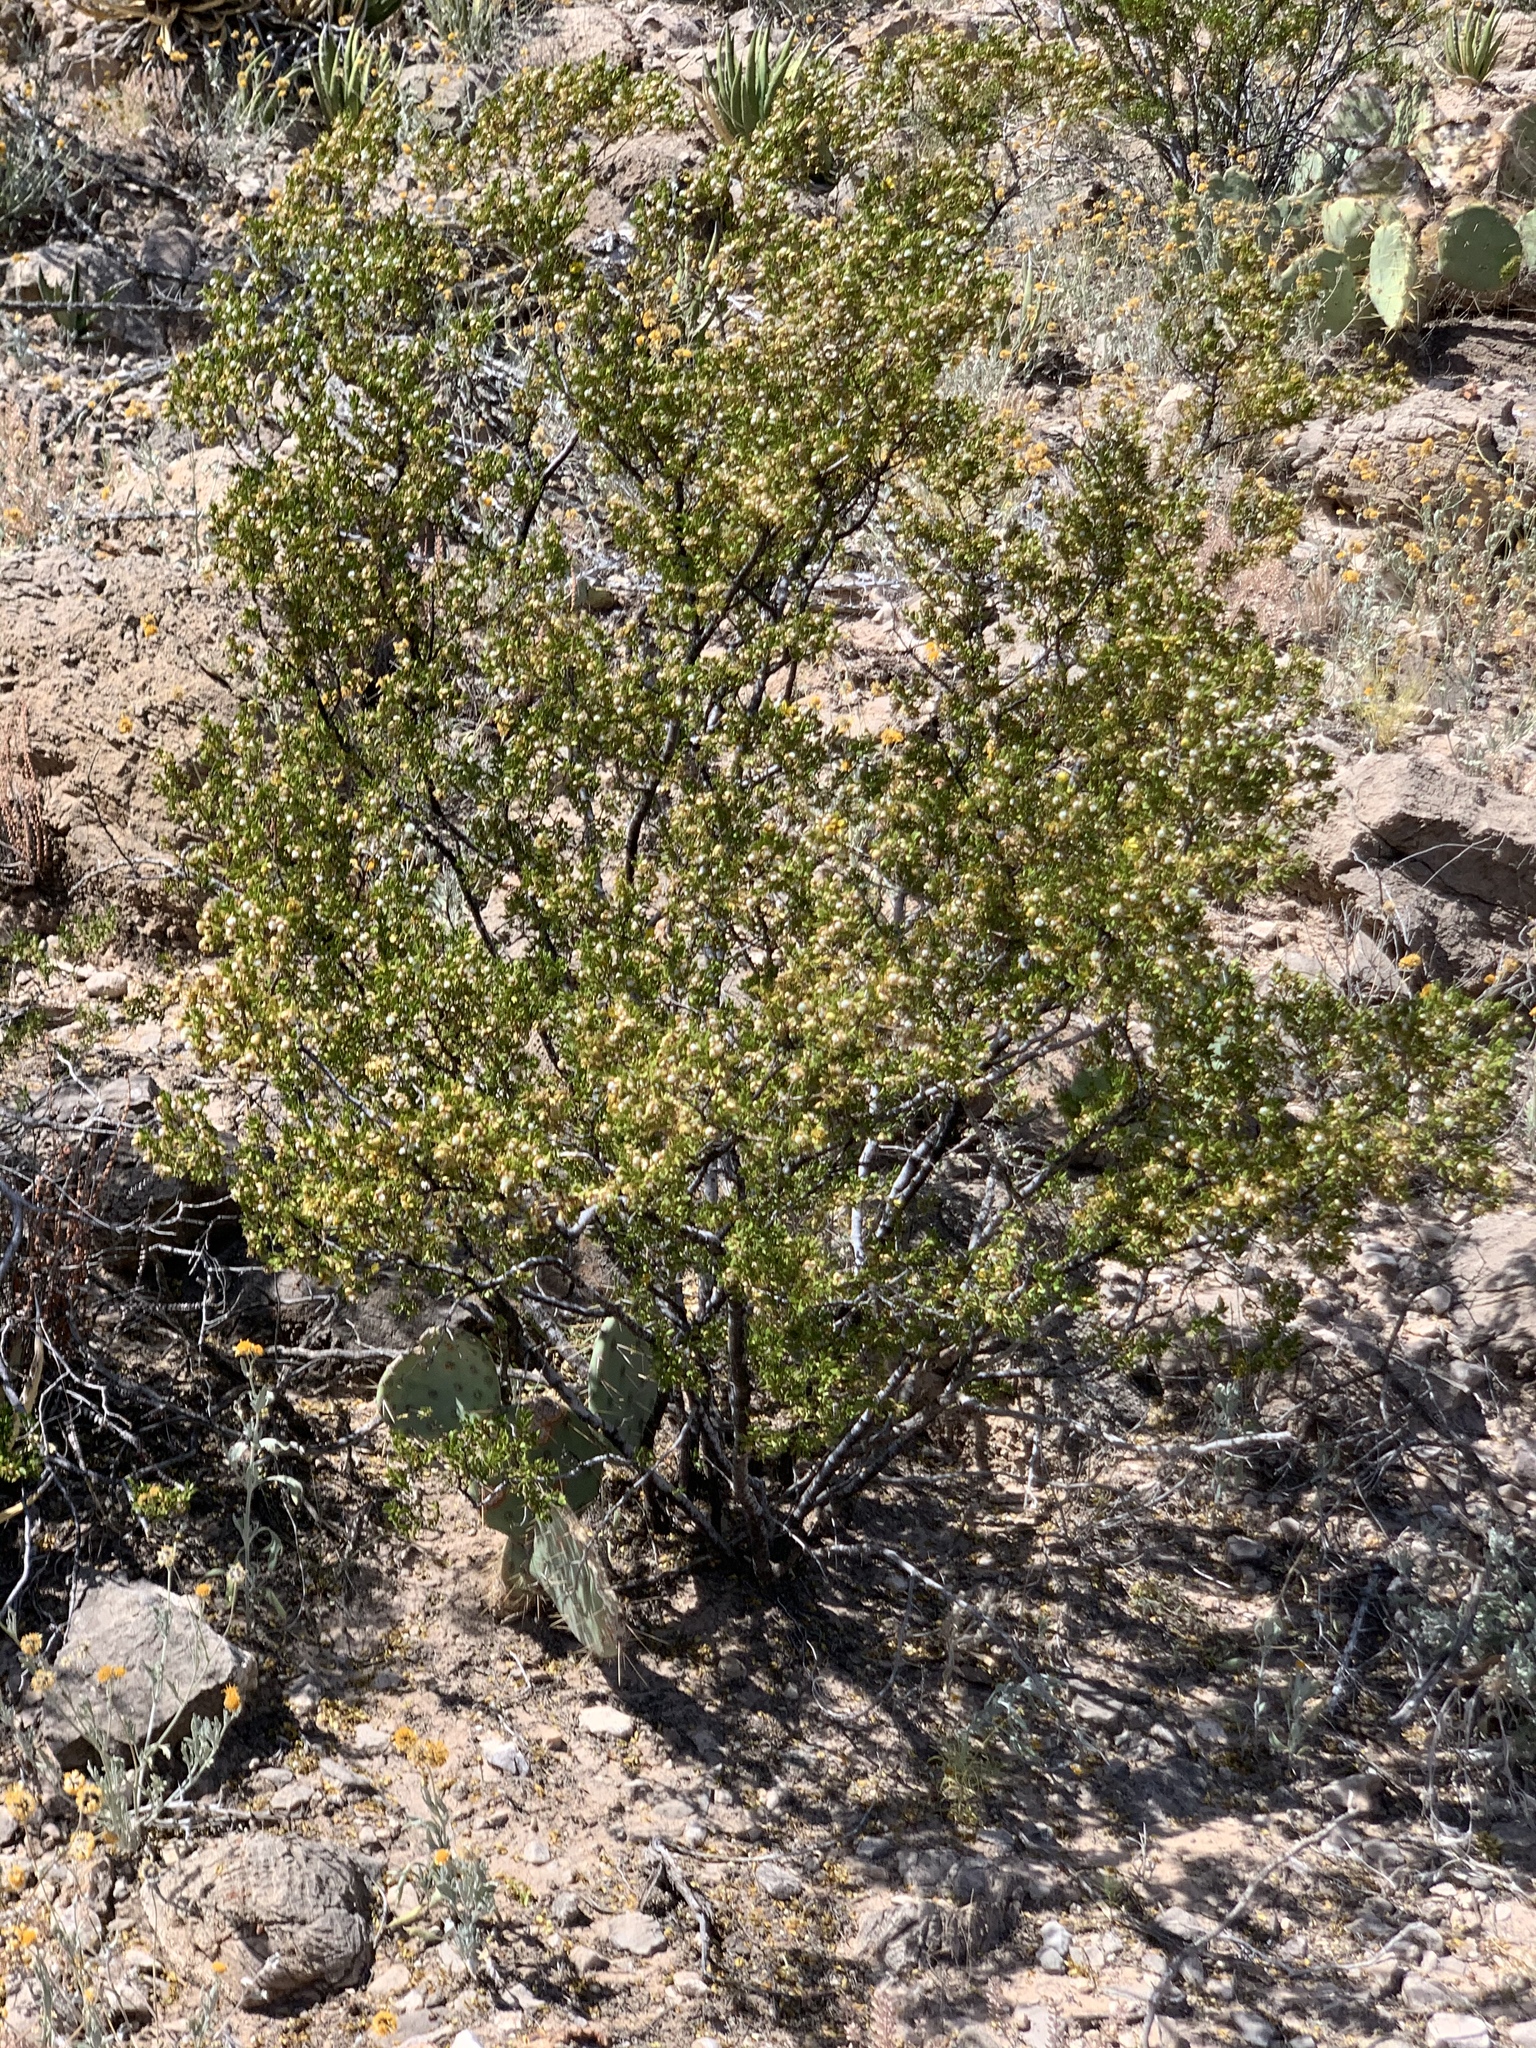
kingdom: Plantae
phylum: Tracheophyta
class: Magnoliopsida
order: Zygophyllales
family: Zygophyllaceae
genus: Larrea
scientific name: Larrea tridentata
